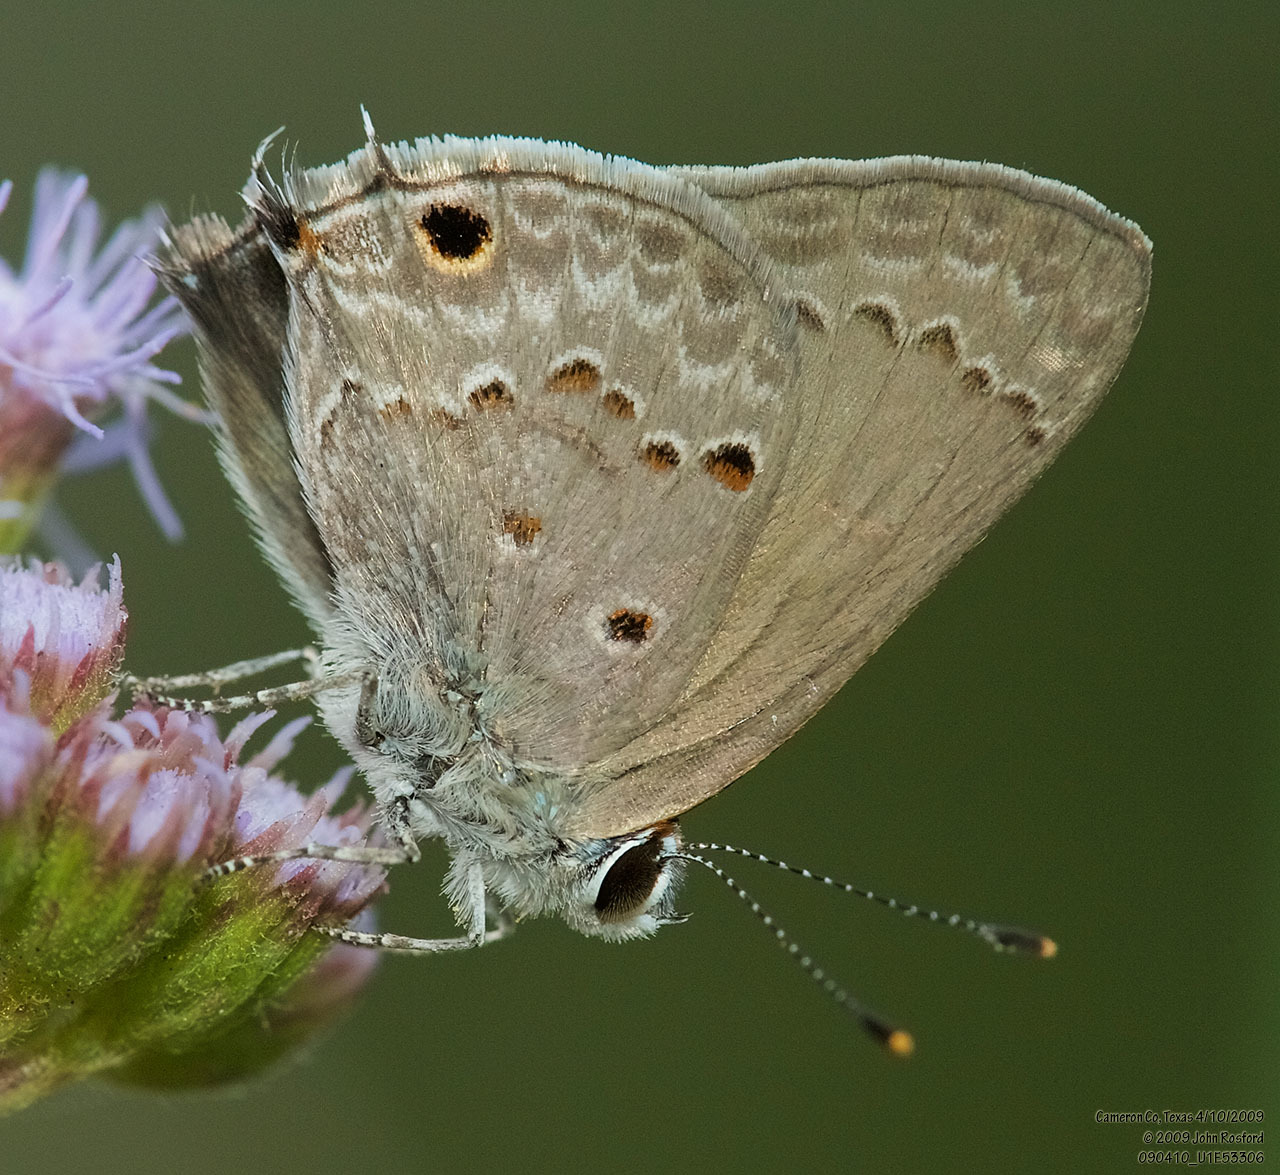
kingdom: Animalia
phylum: Arthropoda
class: Insecta
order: Lepidoptera
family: Lycaenidae
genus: Callicista
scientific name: Callicista columella
